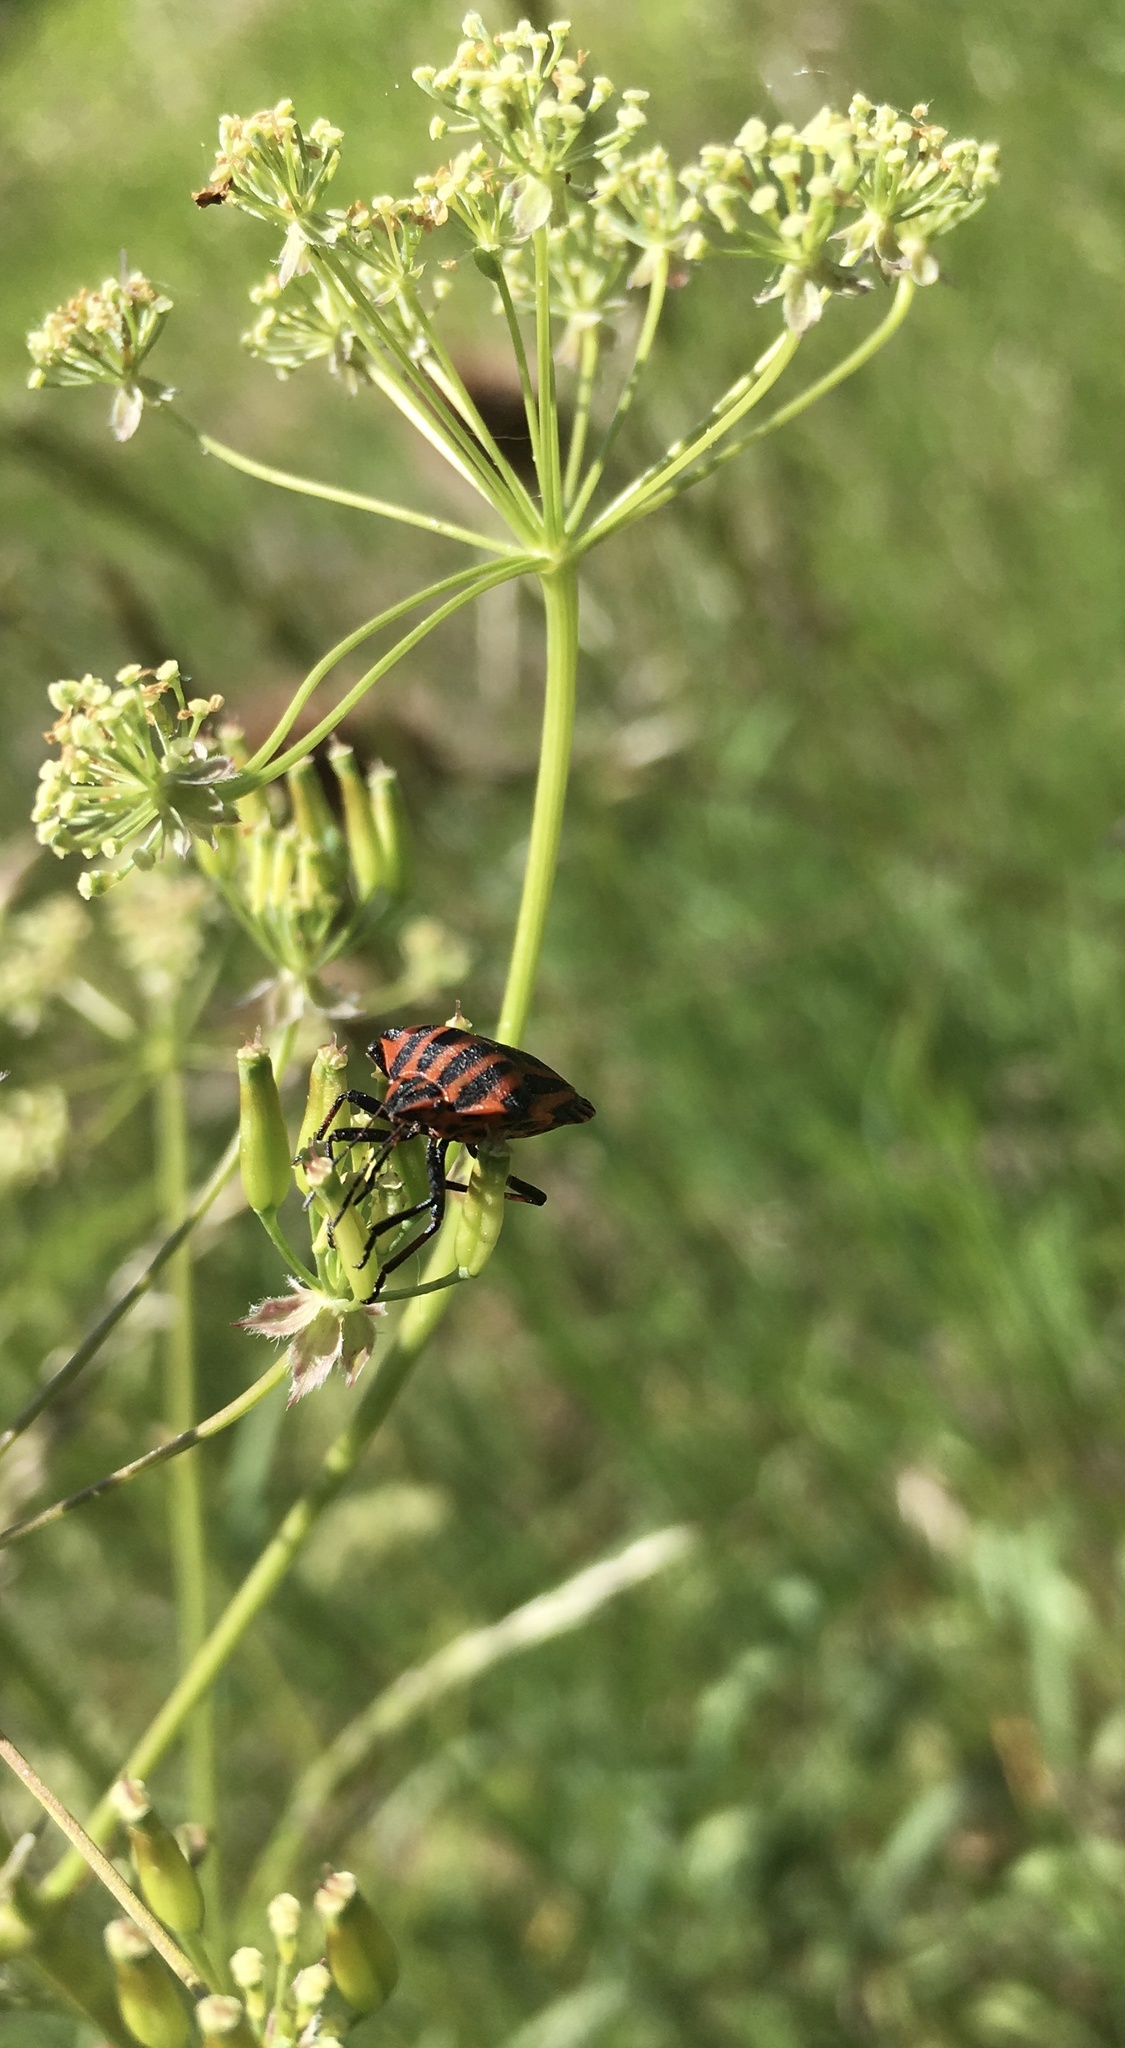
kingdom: Animalia
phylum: Arthropoda
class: Insecta
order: Hemiptera
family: Pentatomidae
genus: Graphosoma
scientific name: Graphosoma italicum
